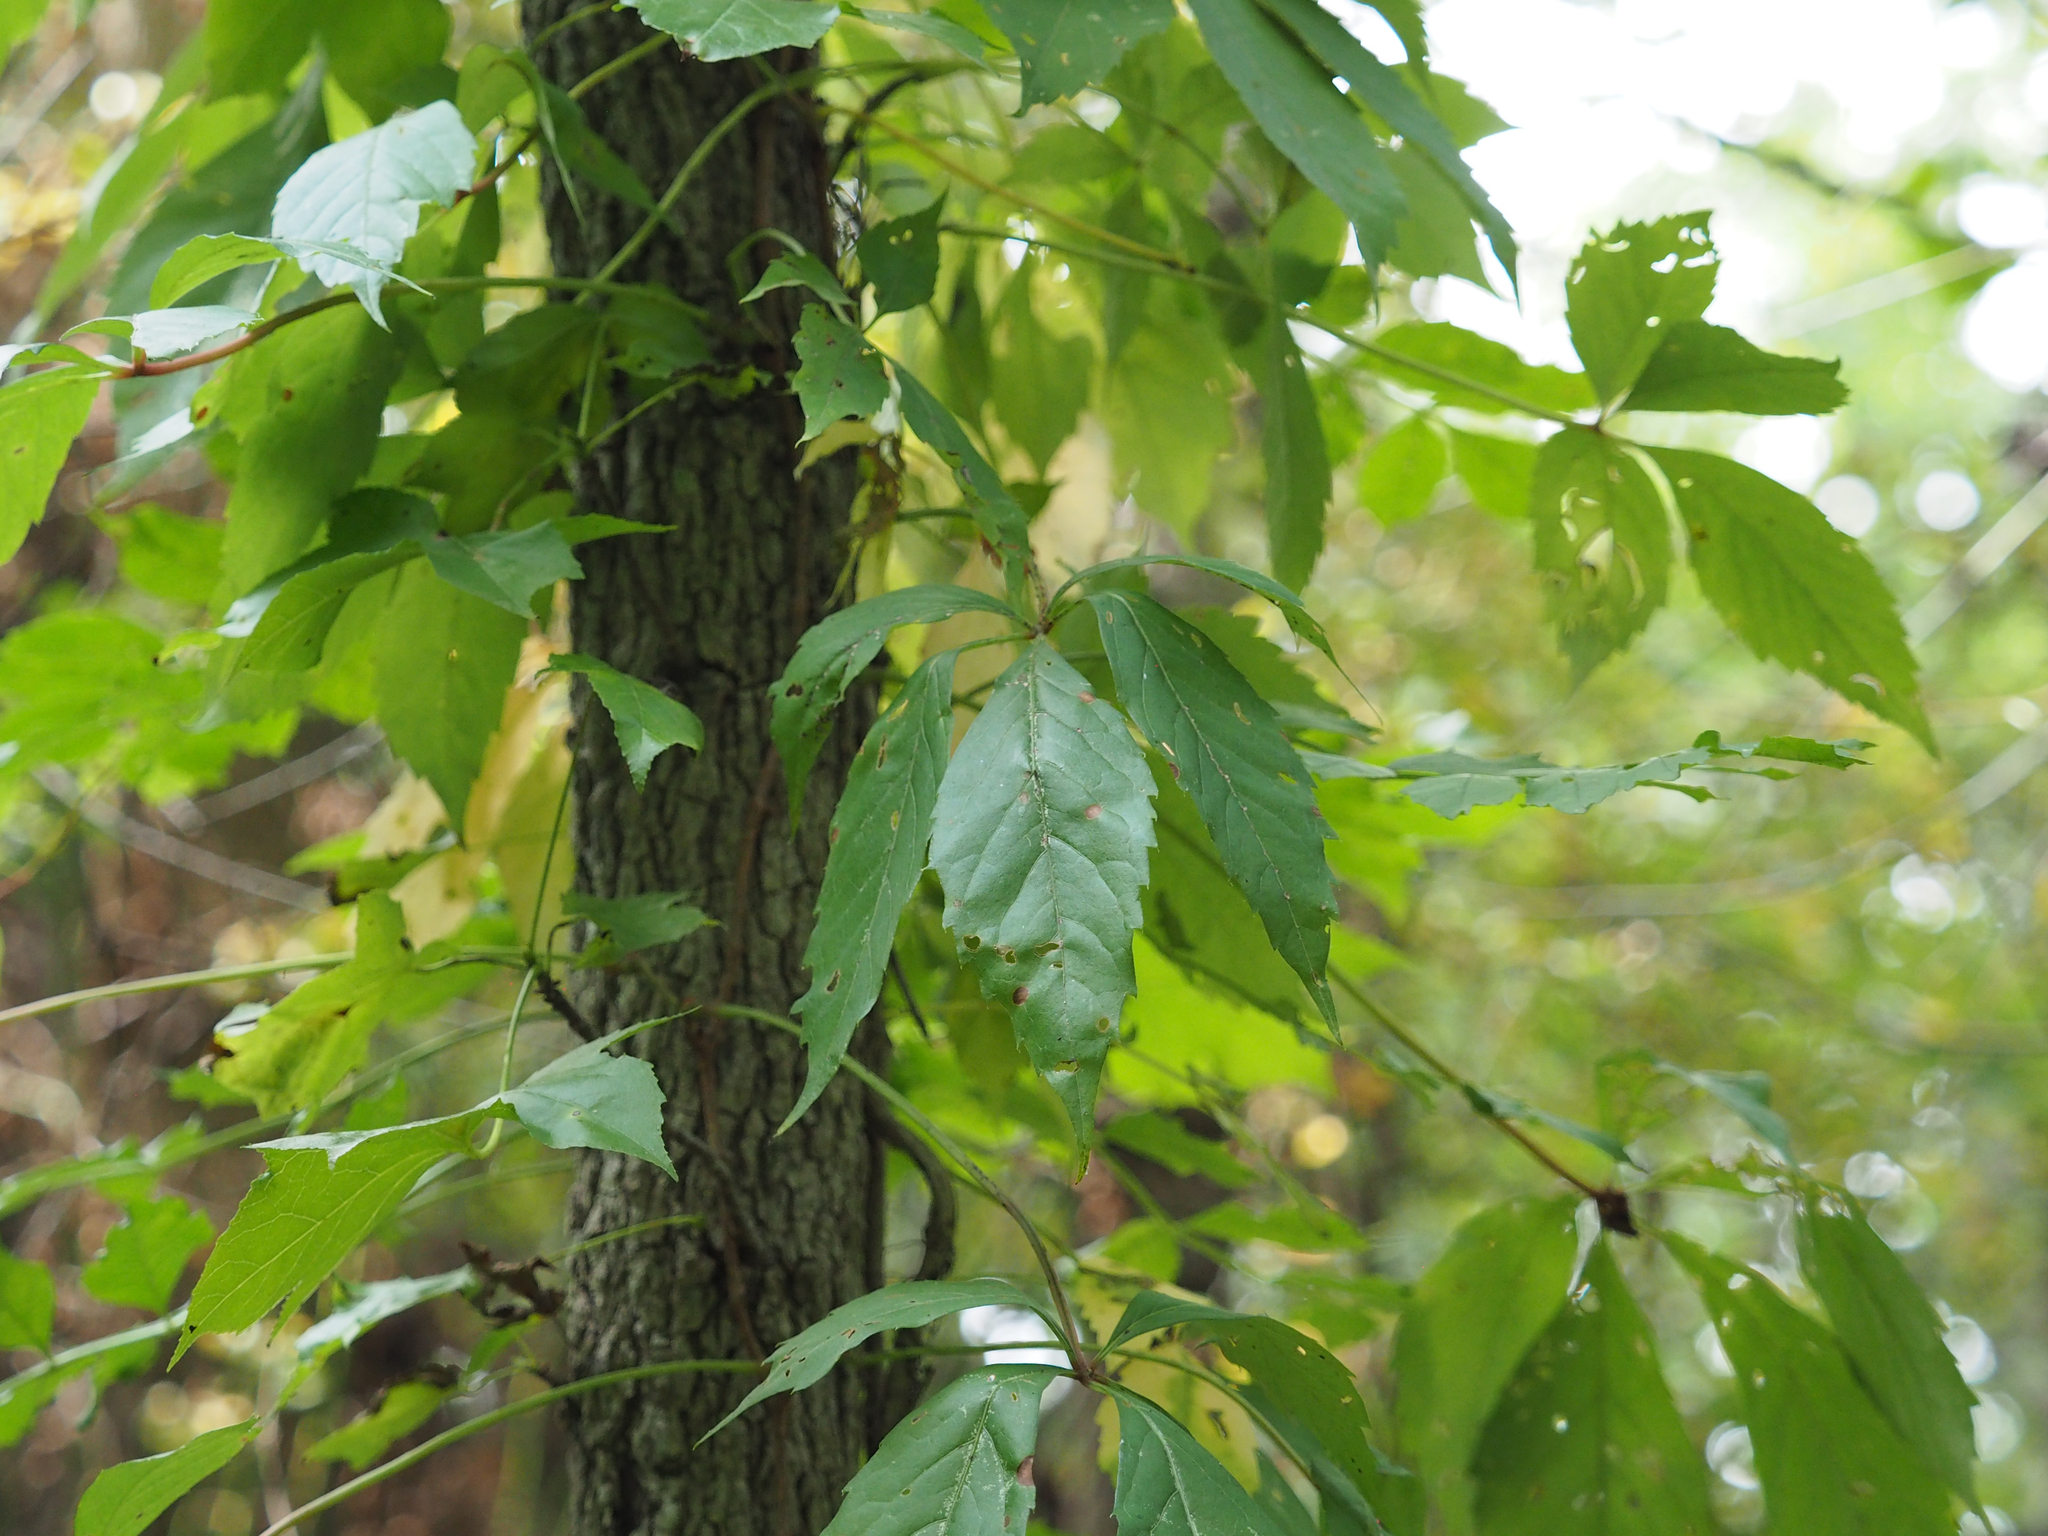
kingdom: Plantae
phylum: Tracheophyta
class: Magnoliopsida
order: Vitales
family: Vitaceae
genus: Parthenocissus
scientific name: Parthenocissus quinquefolia
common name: Virginia-creeper
